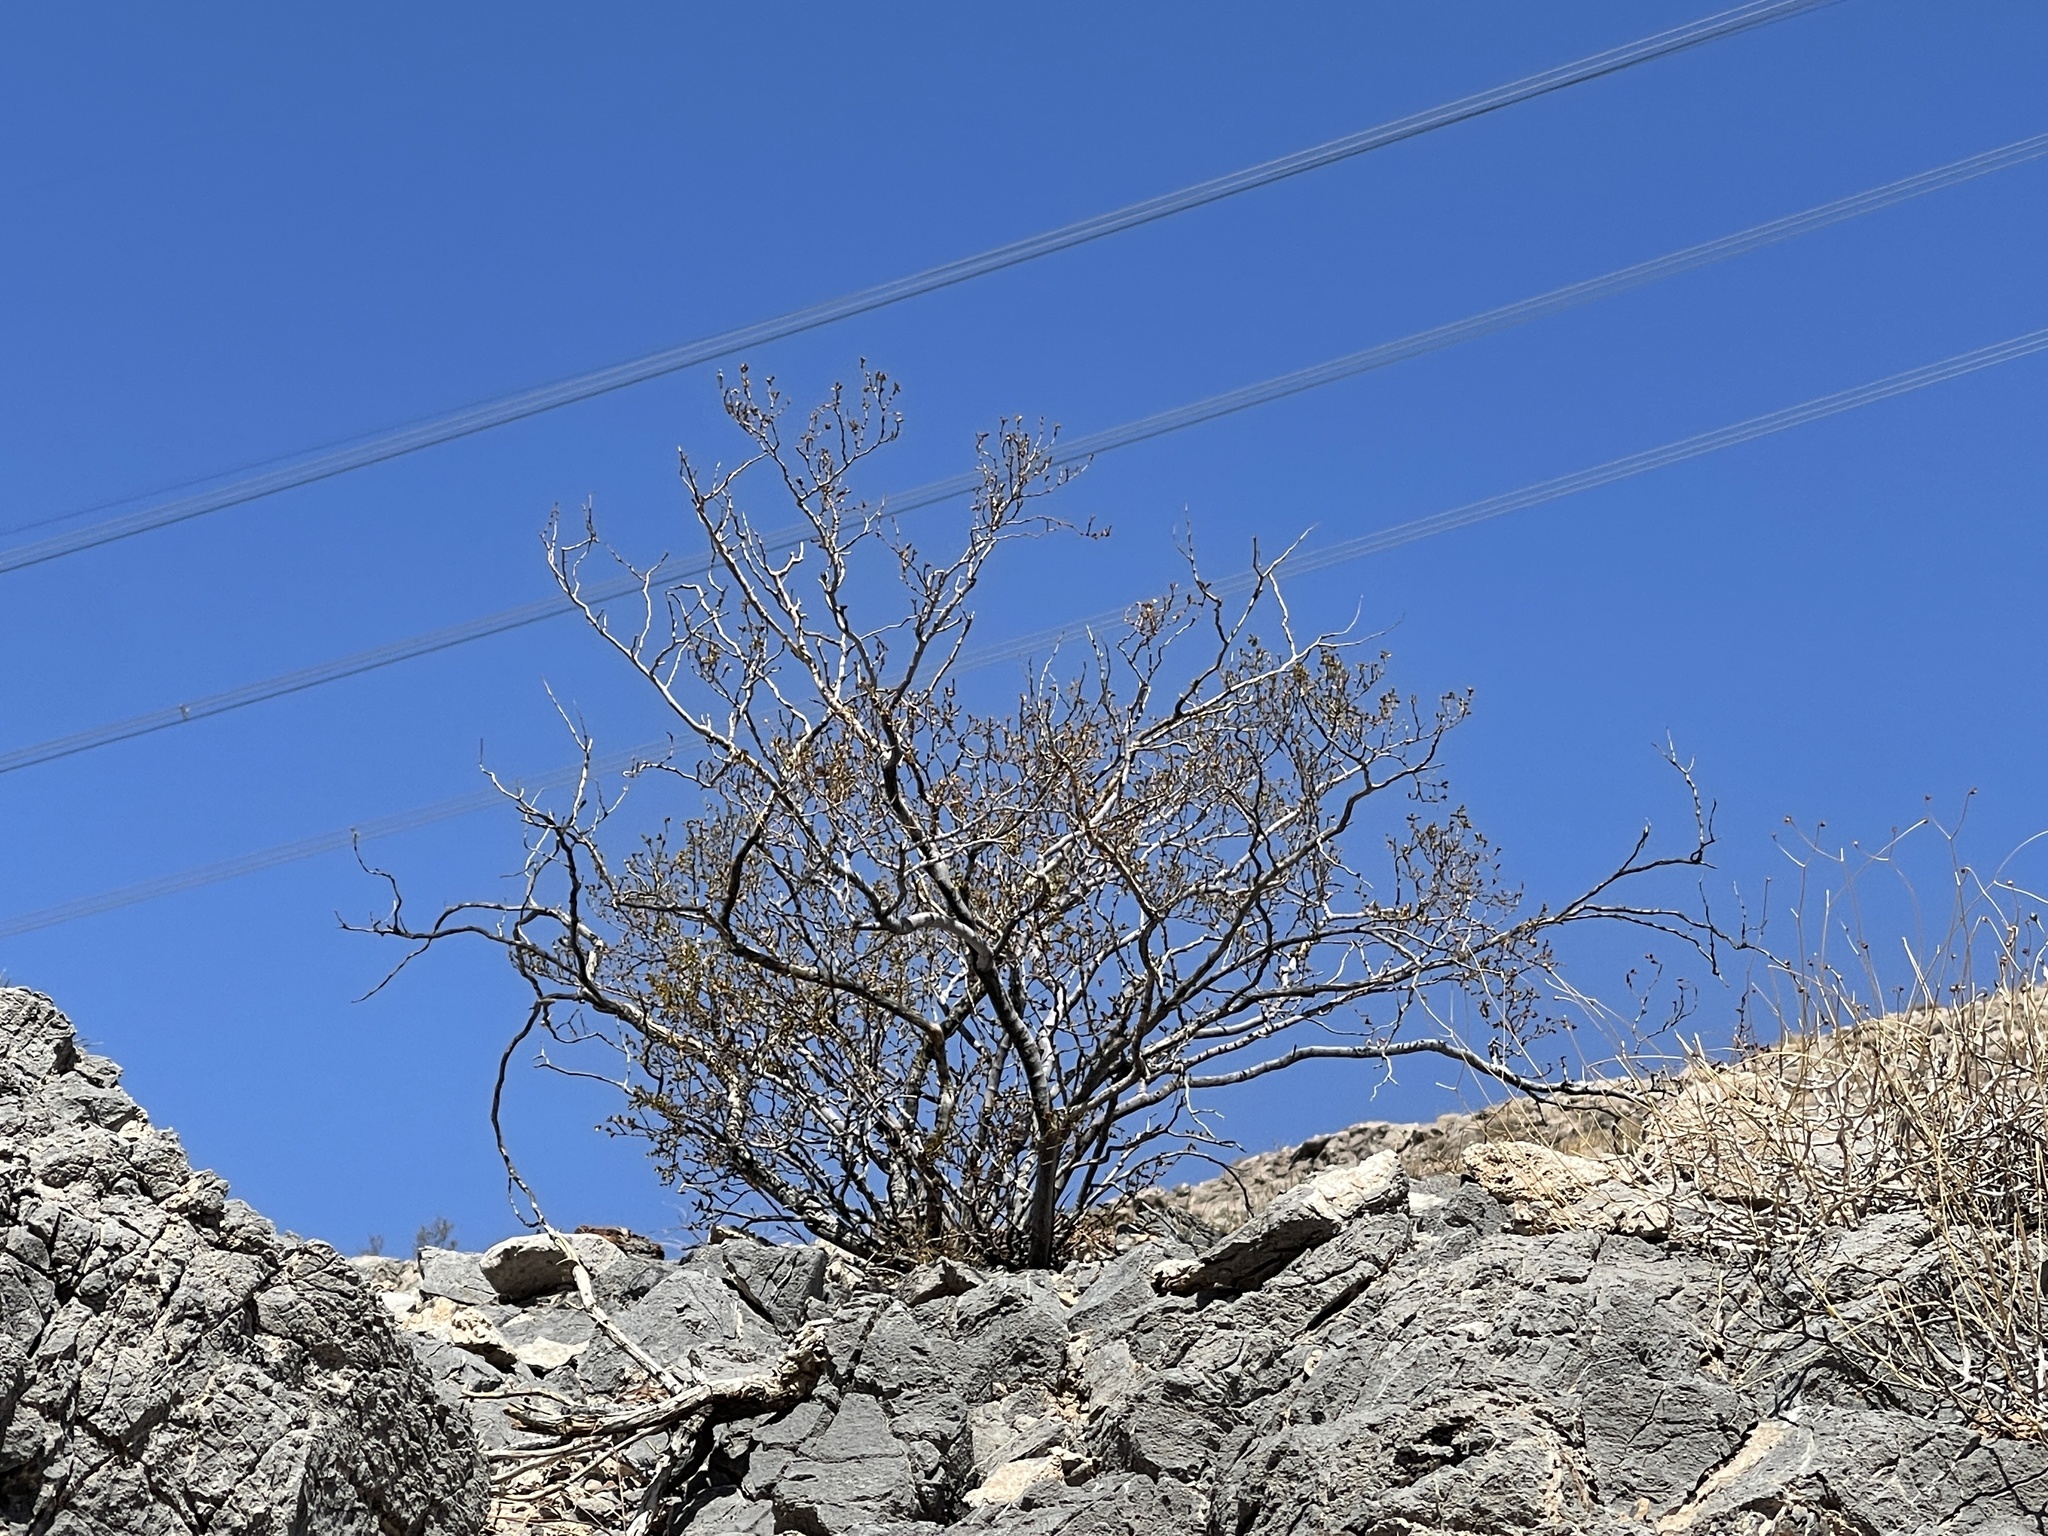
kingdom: Plantae
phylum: Tracheophyta
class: Magnoliopsida
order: Zygophyllales
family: Zygophyllaceae
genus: Larrea
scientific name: Larrea tridentata
